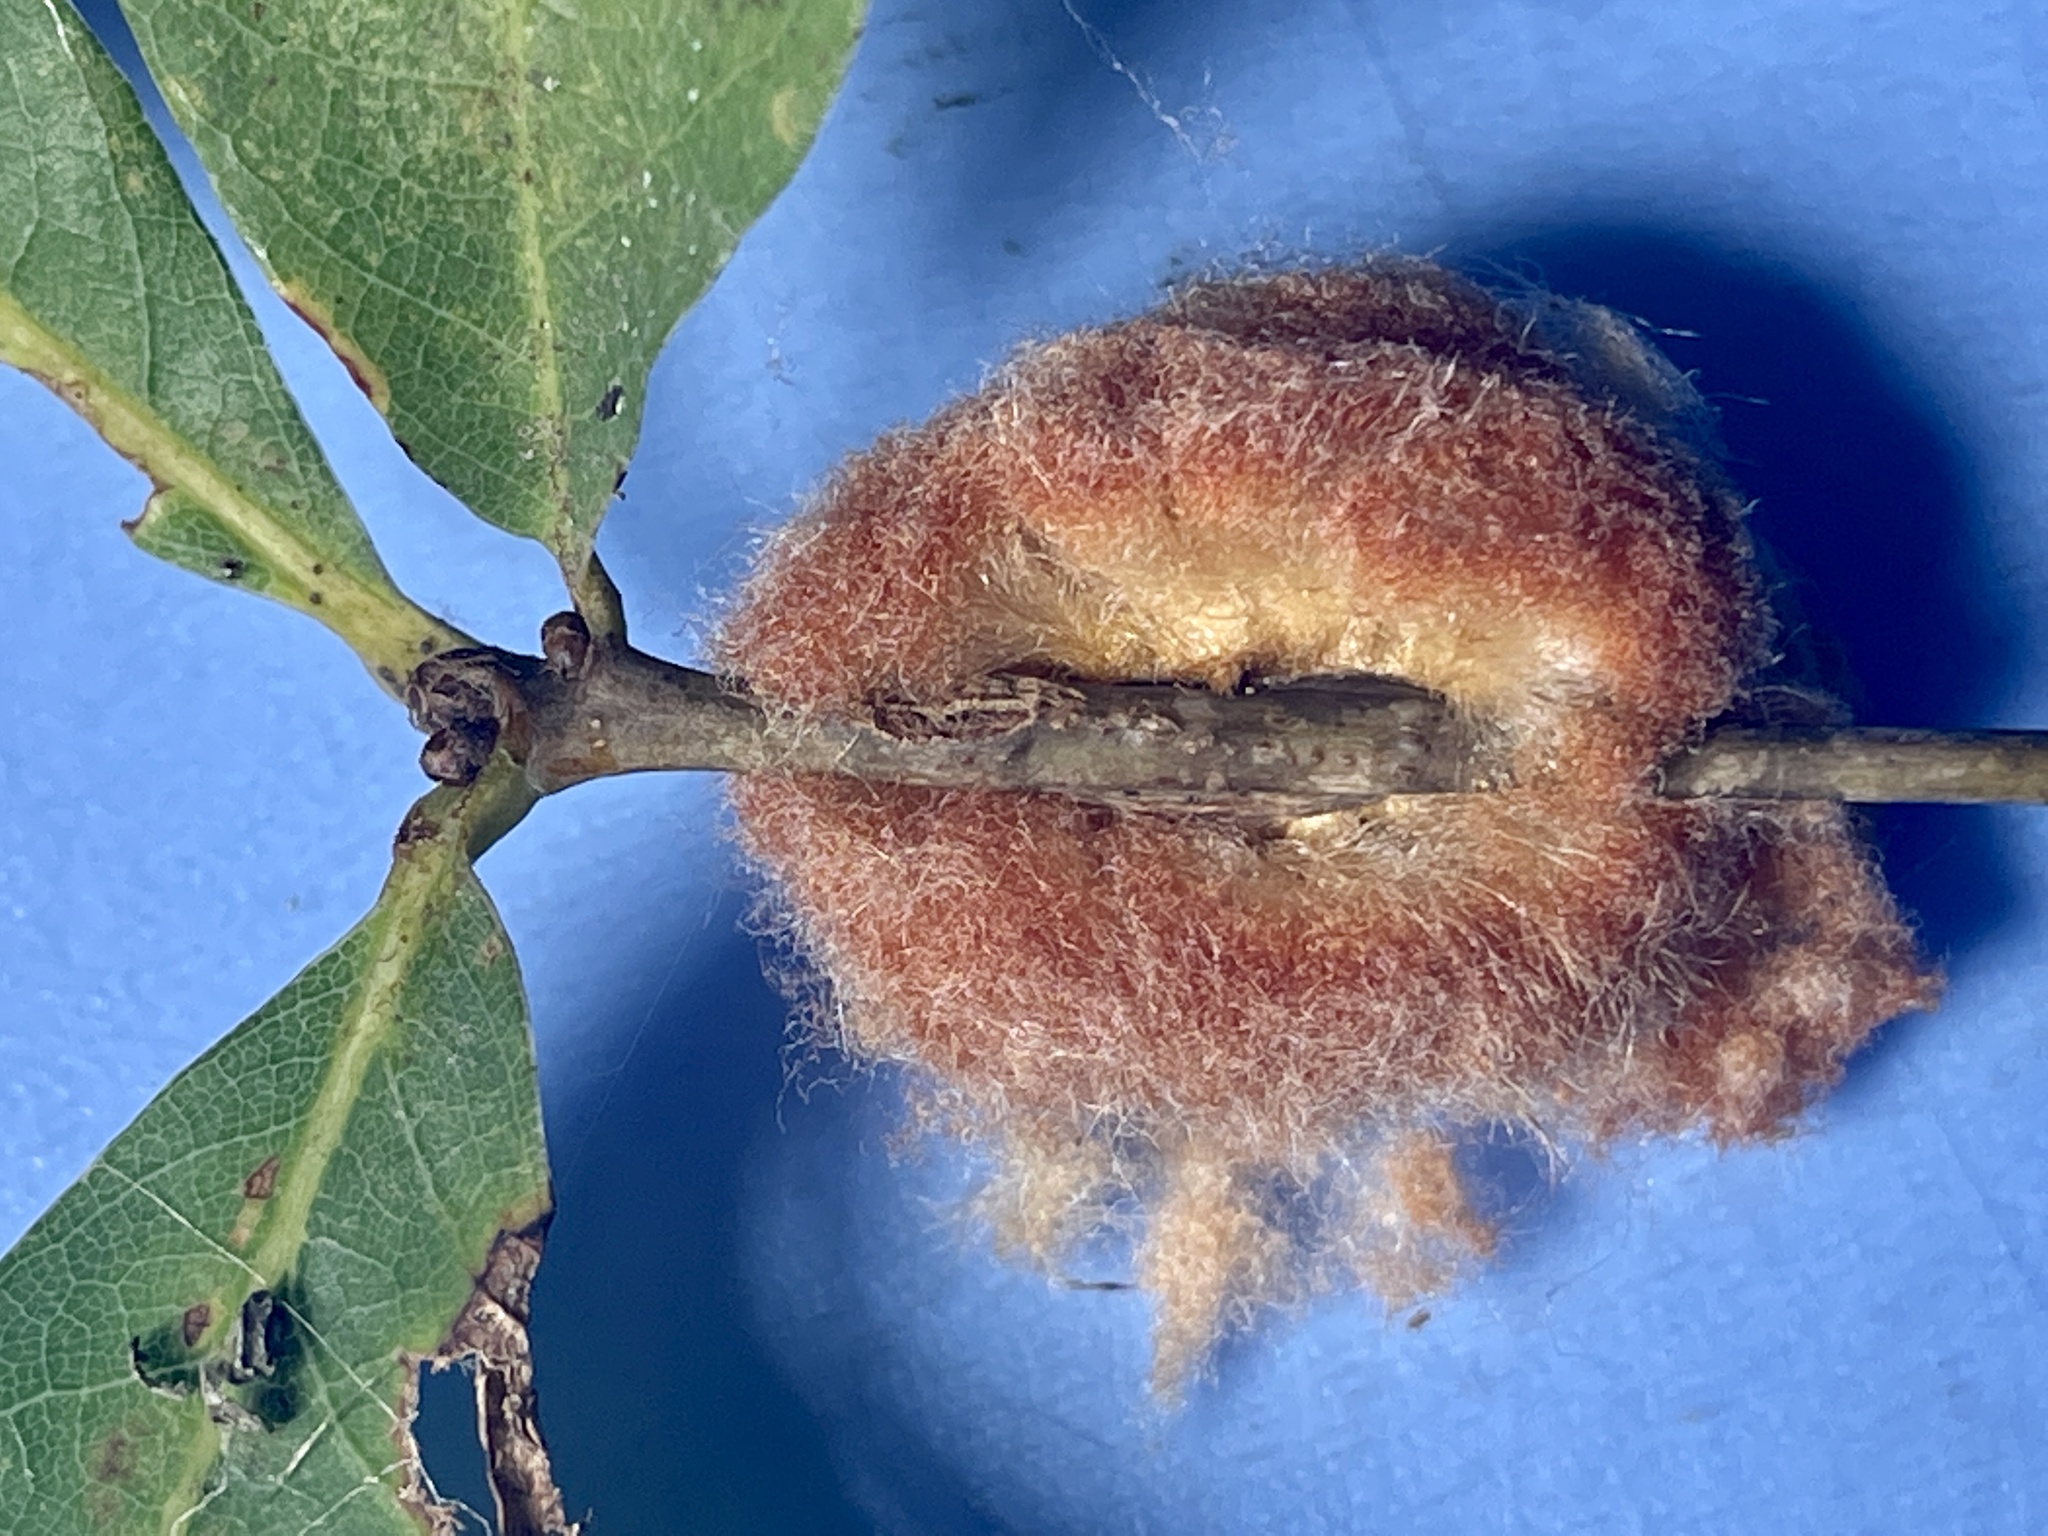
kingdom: Animalia
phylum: Arthropoda
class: Insecta
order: Hymenoptera
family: Cynipidae
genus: Andricus
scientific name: Andricus quercusflocci
